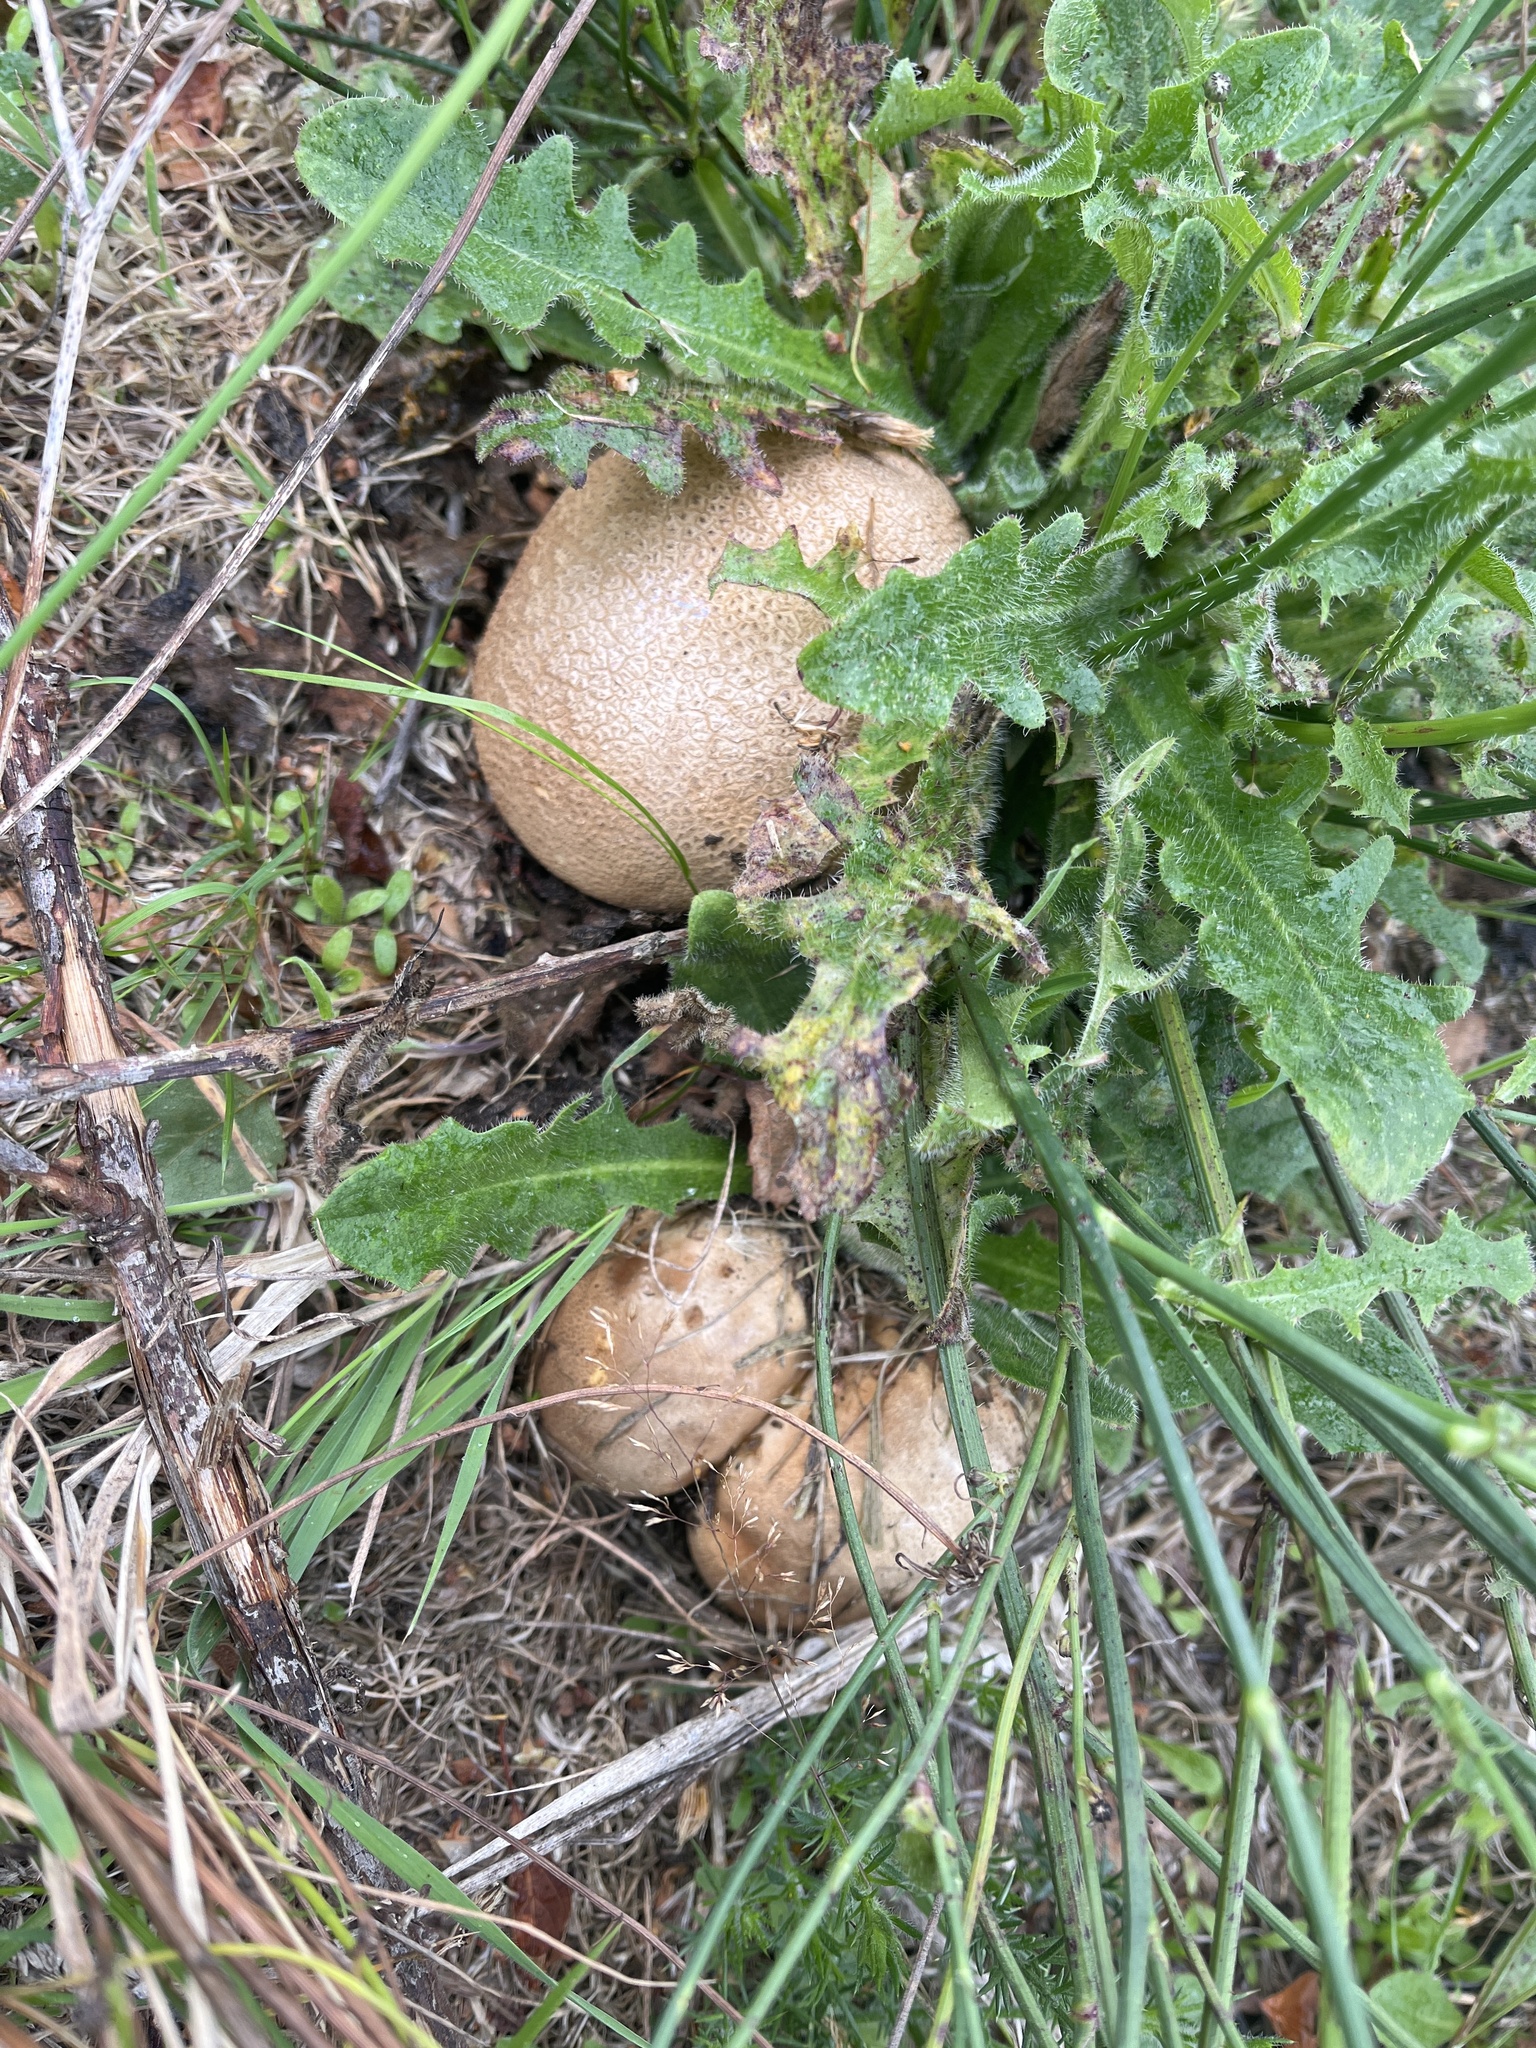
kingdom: Fungi
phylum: Basidiomycota
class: Agaricomycetes
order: Boletales
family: Sclerodermataceae
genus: Scleroderma
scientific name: Scleroderma citrinum
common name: Common earthball
